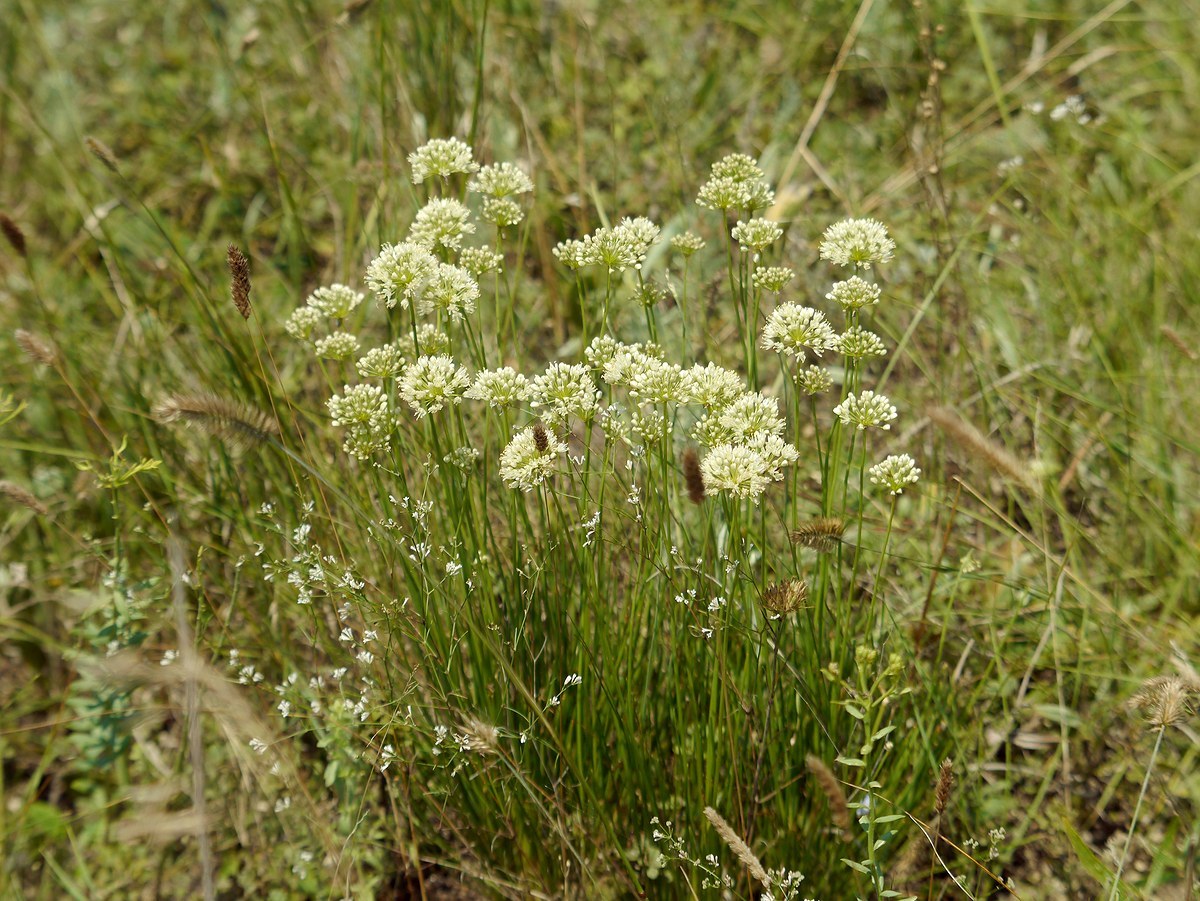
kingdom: Plantae
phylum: Tracheophyta
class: Liliopsida
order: Asparagales
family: Amaryllidaceae
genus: Allium
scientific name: Allium flavescens
